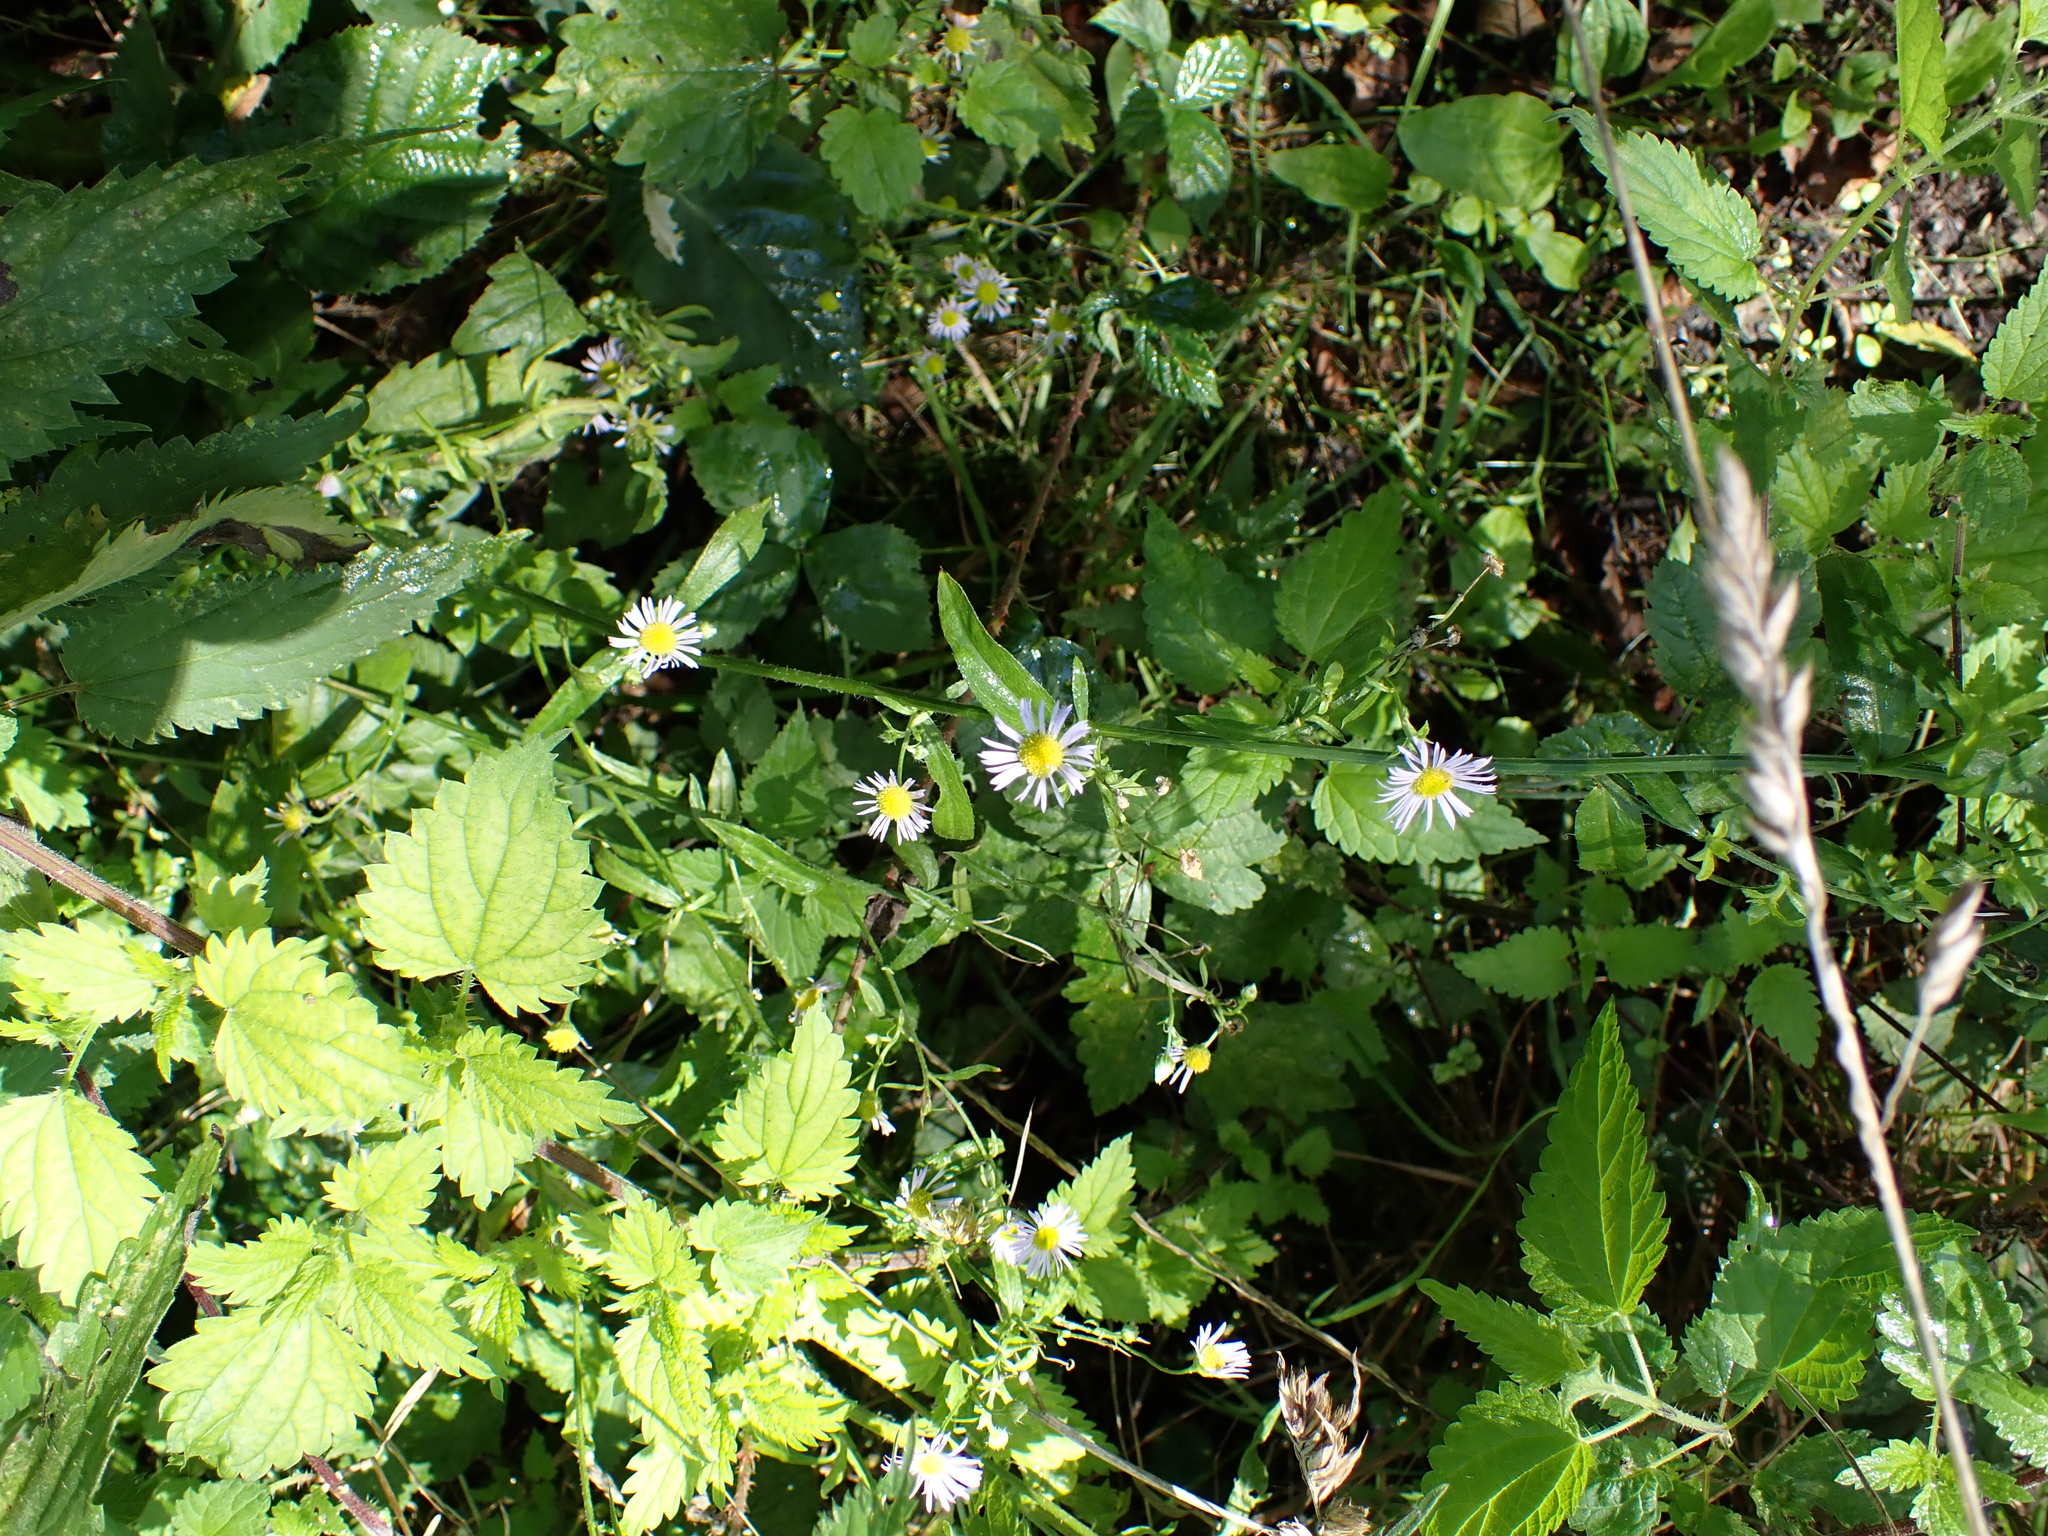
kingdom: Plantae
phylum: Tracheophyta
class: Magnoliopsida
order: Asterales
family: Asteraceae
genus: Erigeron
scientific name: Erigeron annuus
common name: Tall fleabane
